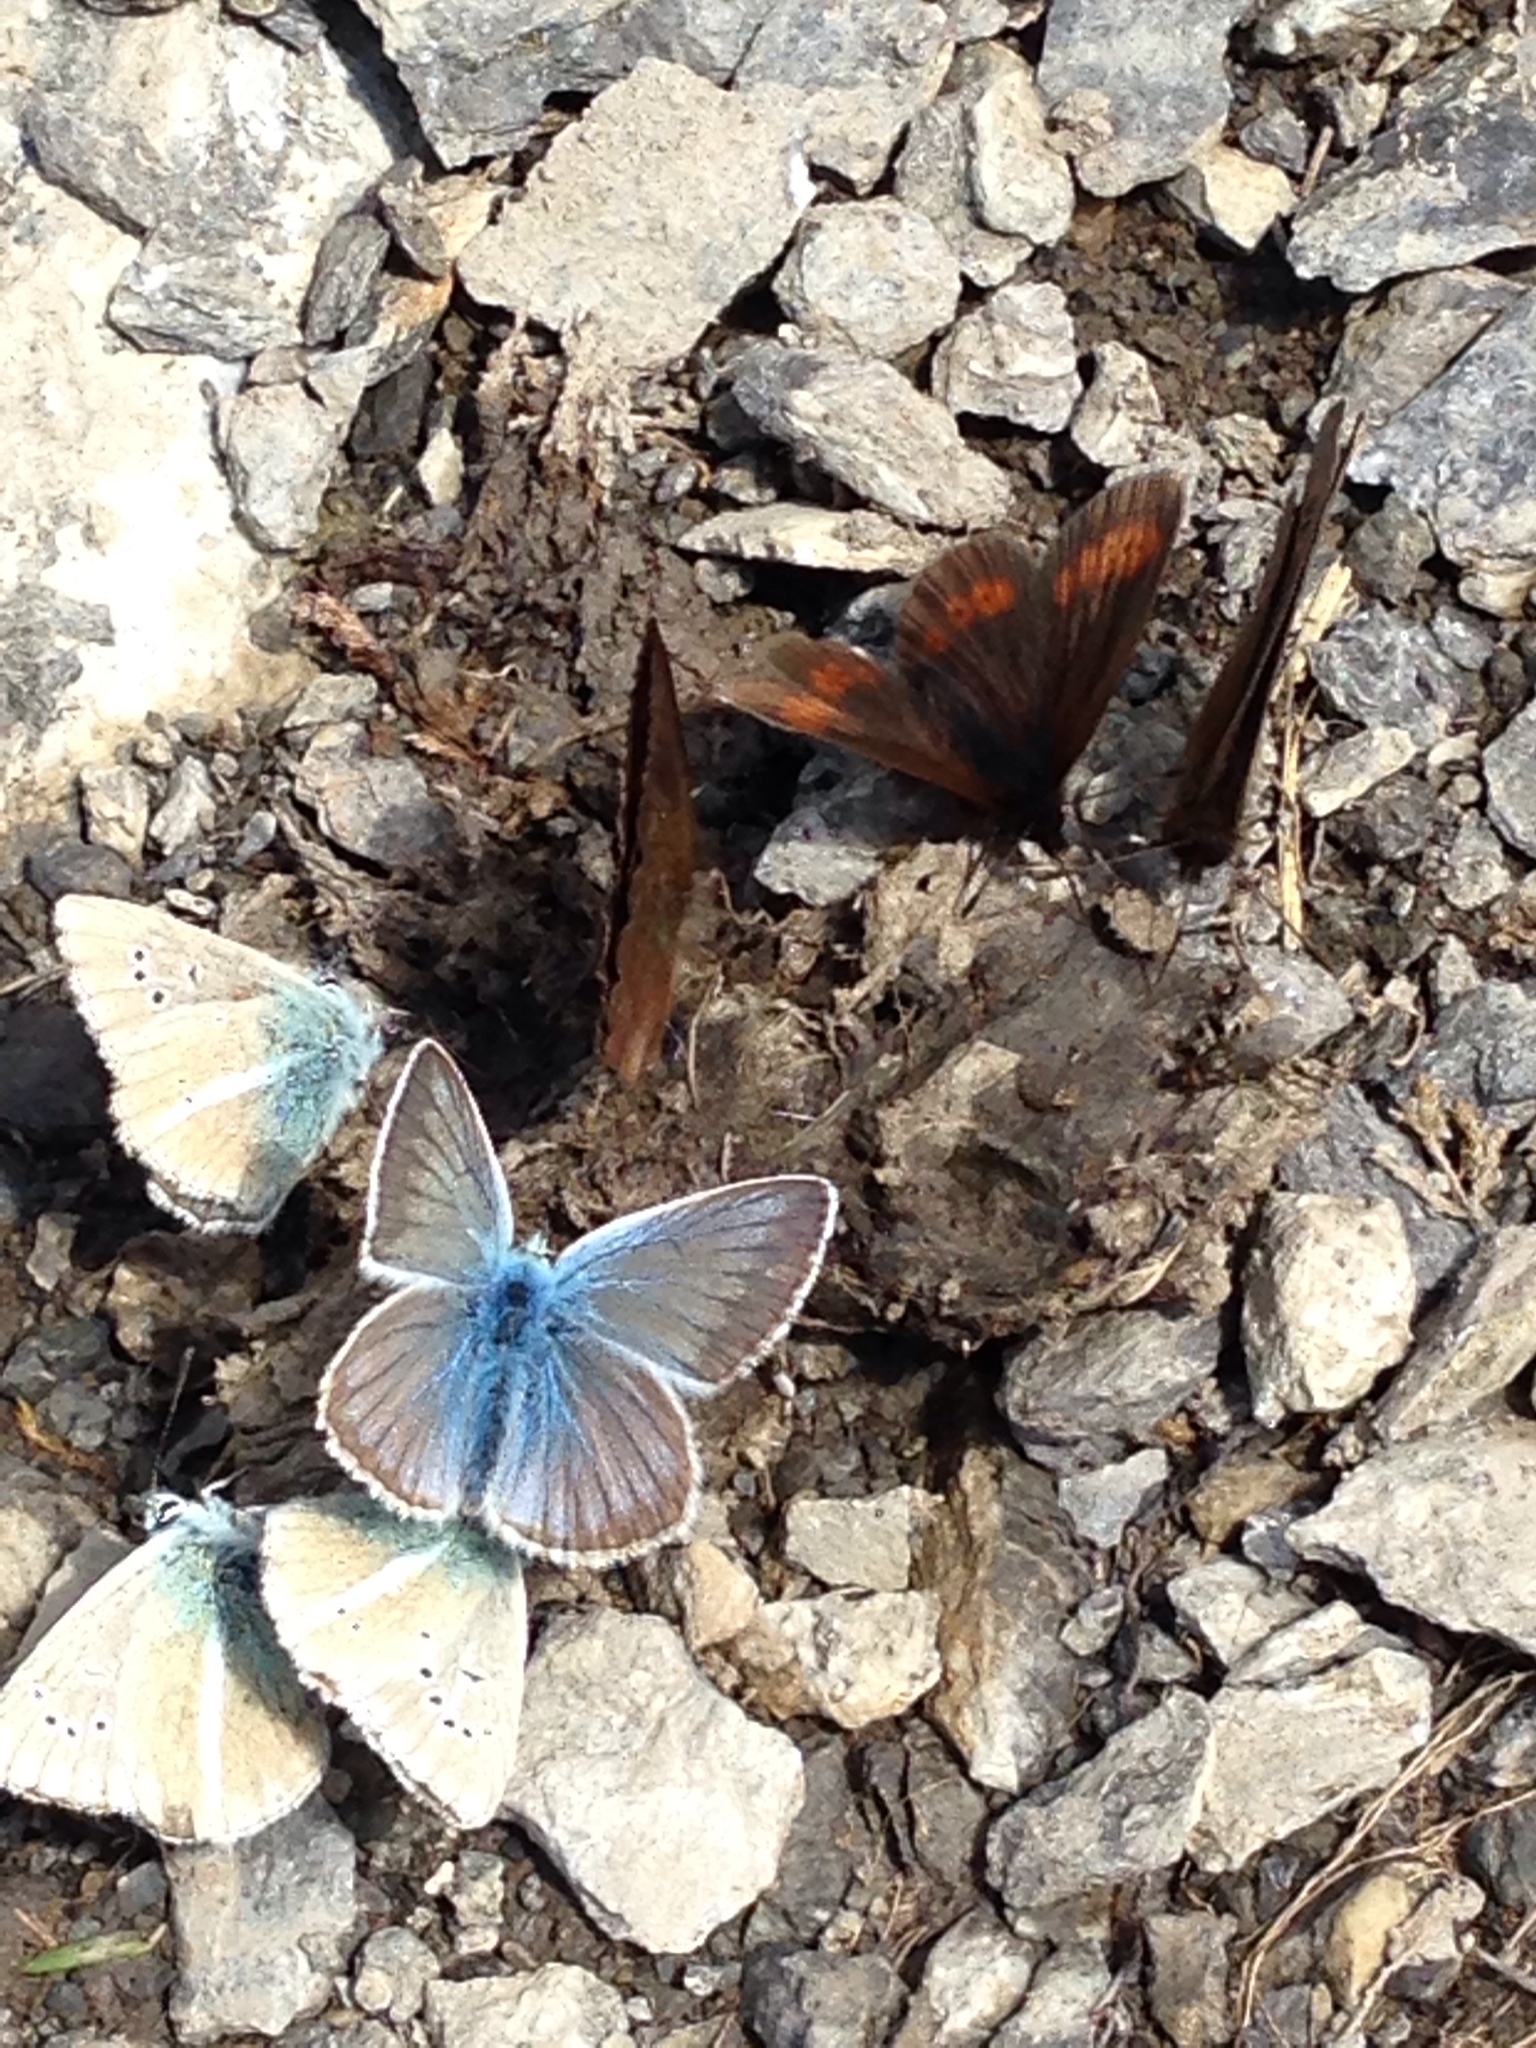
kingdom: Animalia
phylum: Arthropoda
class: Insecta
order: Lepidoptera
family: Lycaenidae
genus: Agrodiaetus
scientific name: Agrodiaetus damon
